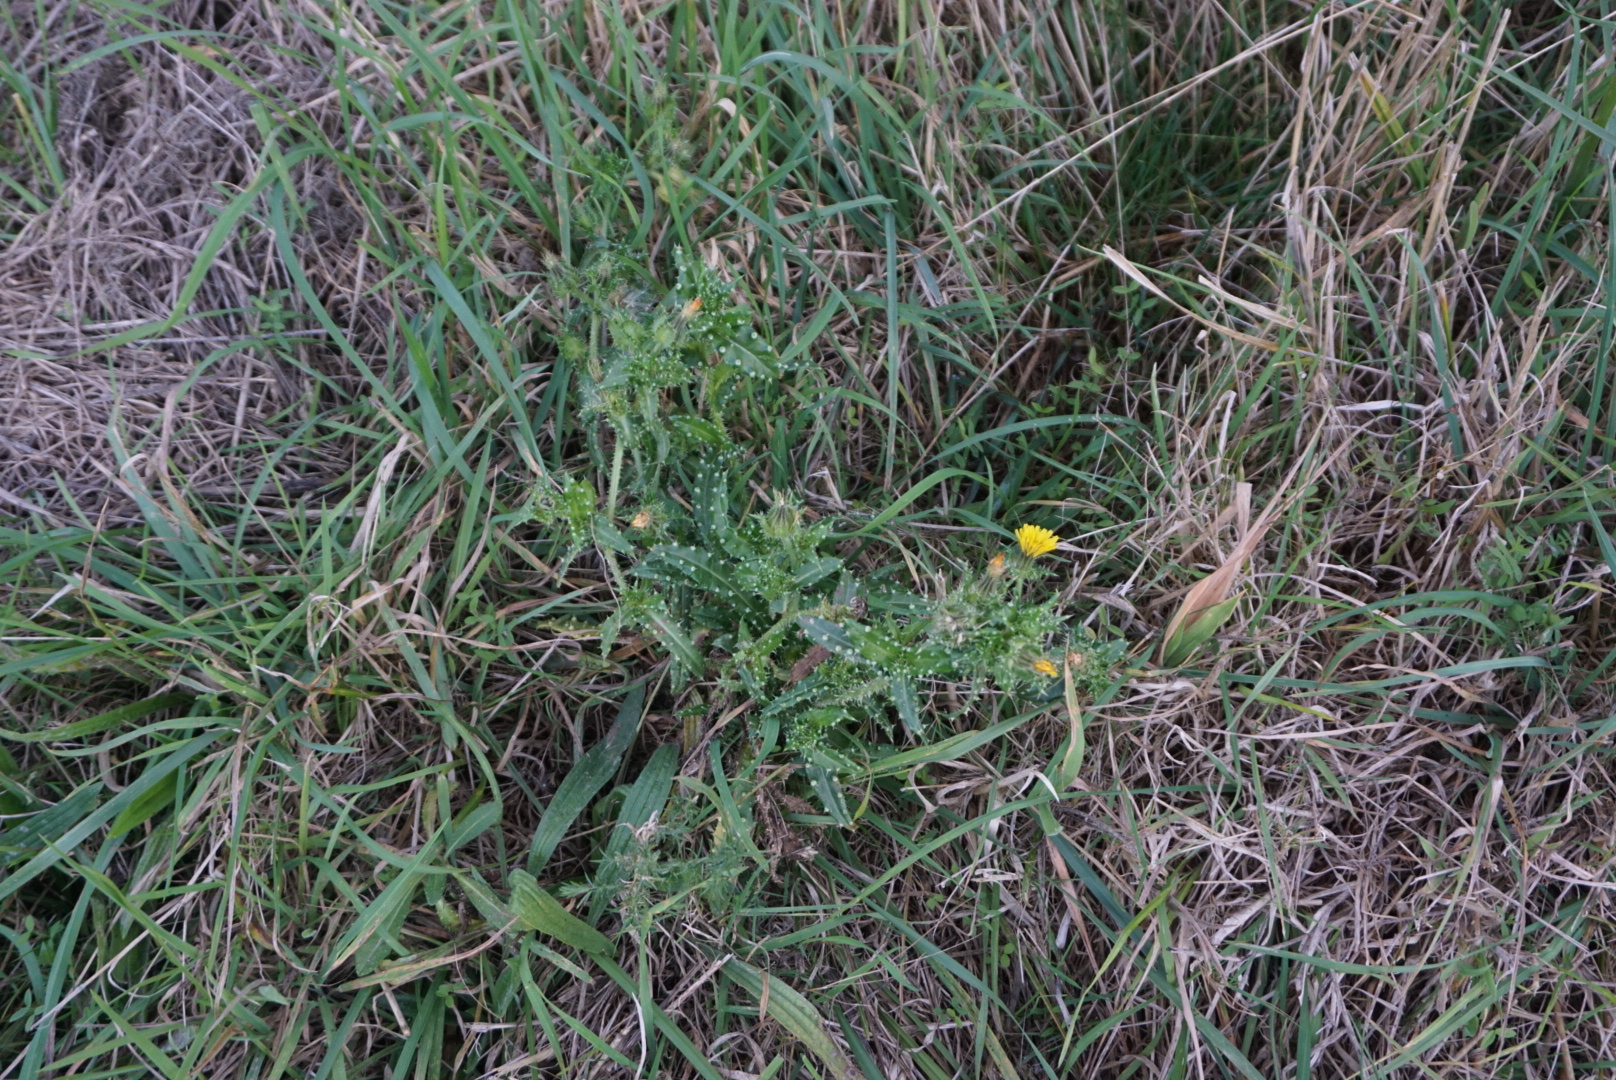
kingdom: Plantae
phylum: Tracheophyta
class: Magnoliopsida
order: Asterales
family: Asteraceae
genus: Helminthotheca
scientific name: Helminthotheca echioides
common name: Ox-tongue
